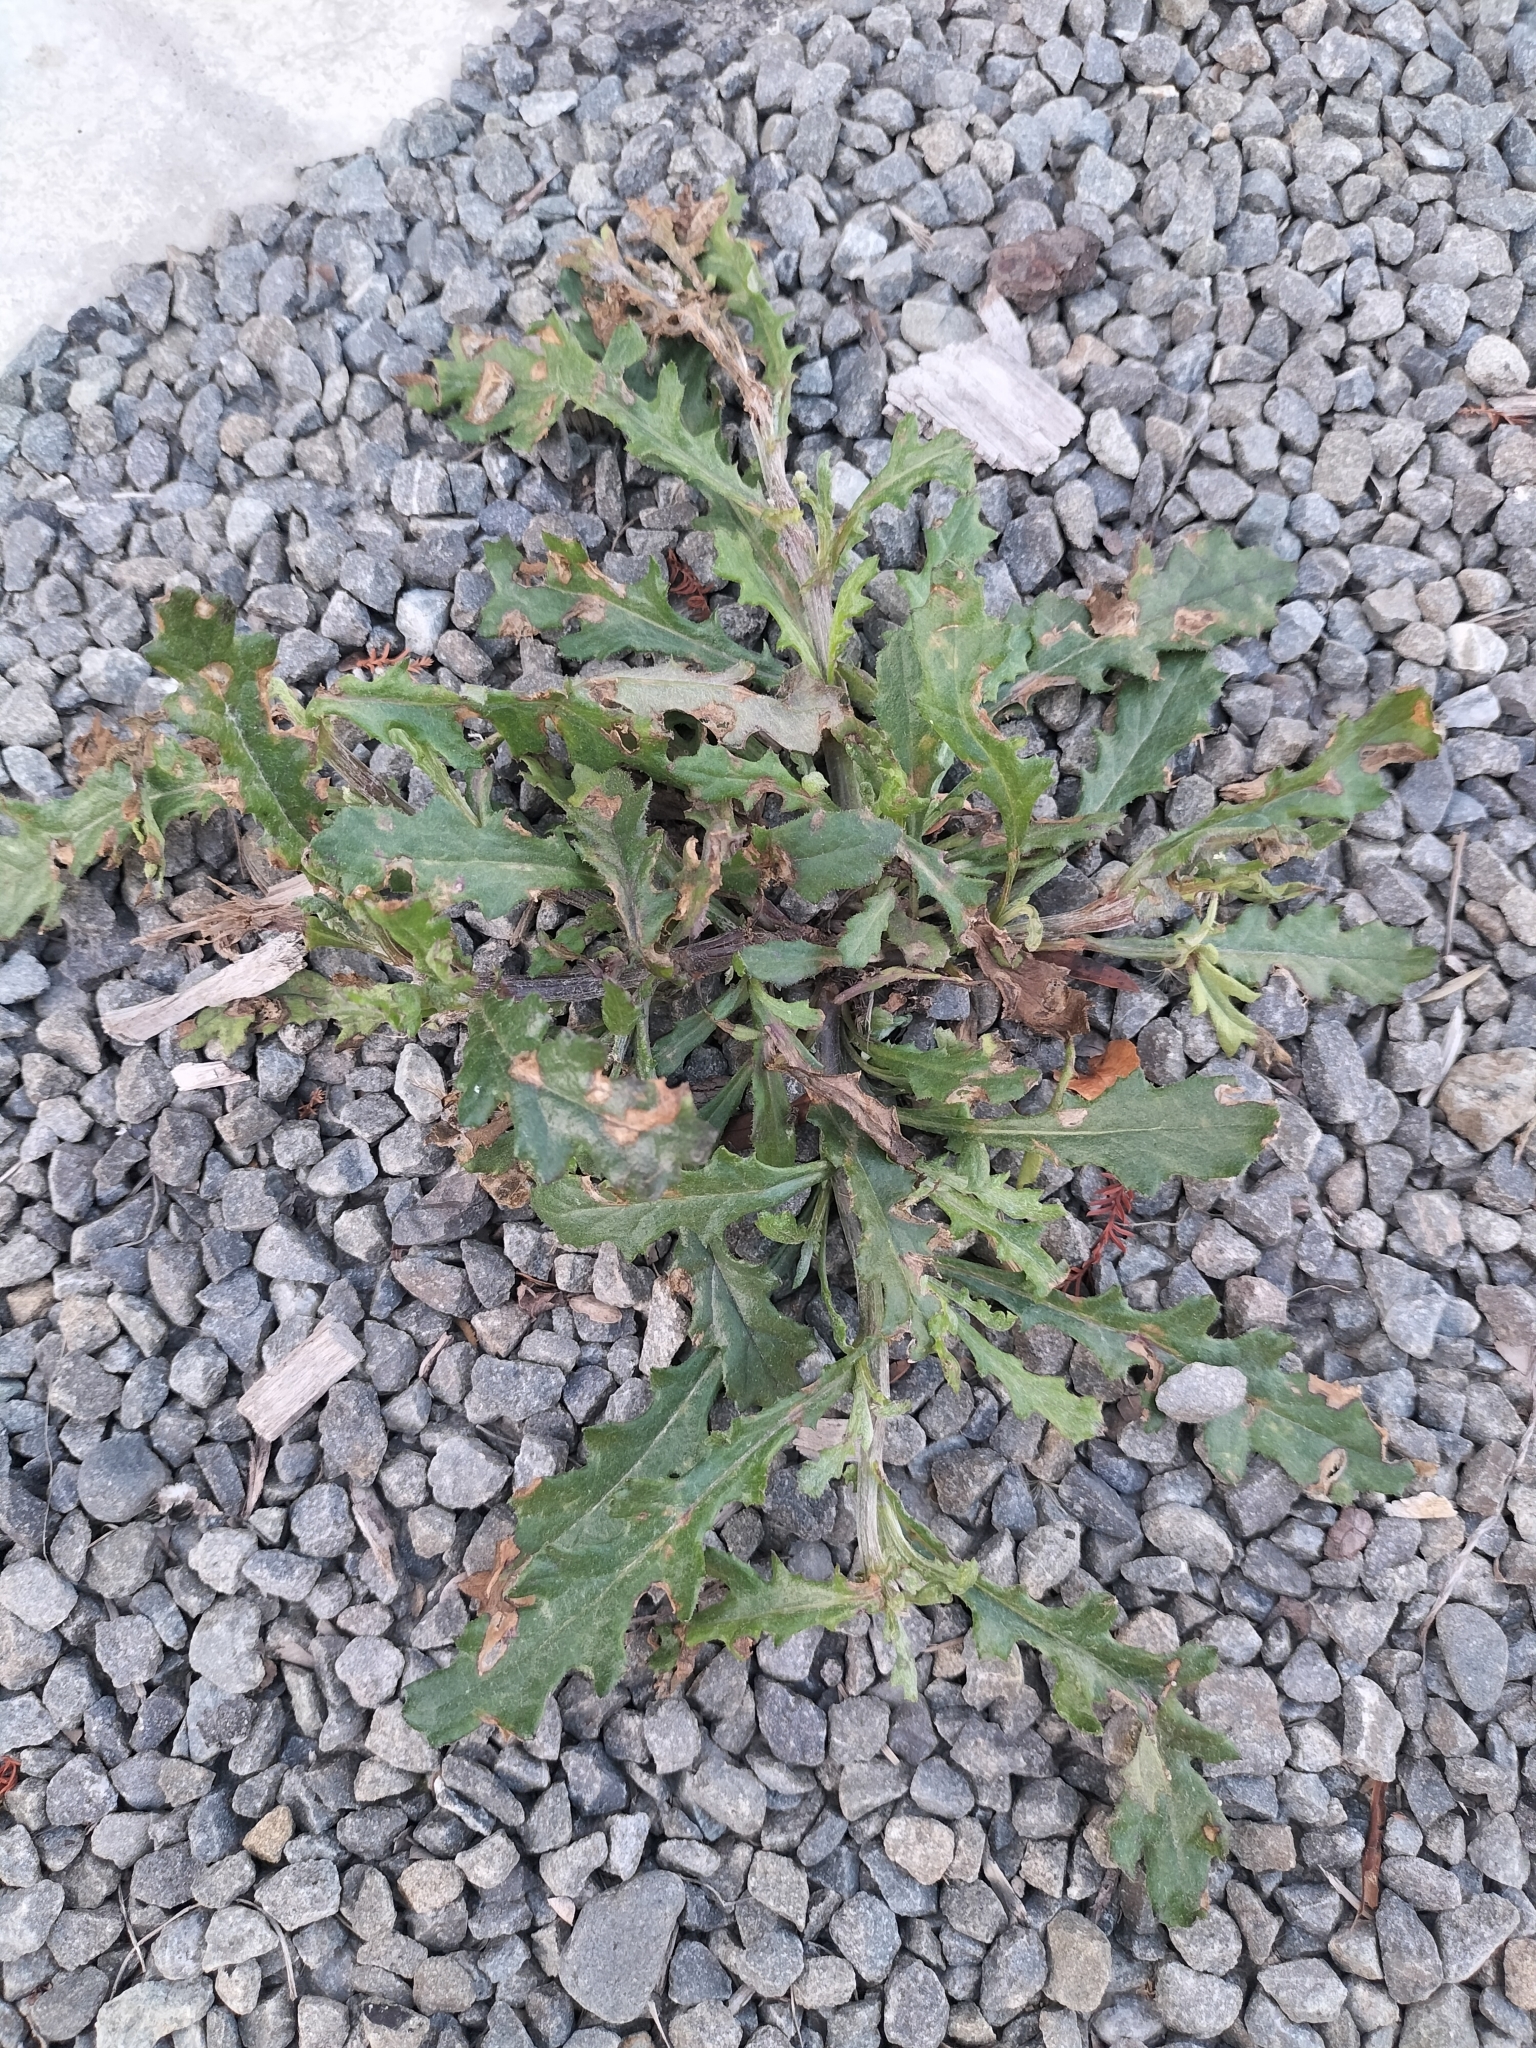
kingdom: Plantae
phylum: Tracheophyta
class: Magnoliopsida
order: Asterales
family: Asteraceae
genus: Senecio
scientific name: Senecio glomeratus
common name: Cutleaf burnweed
